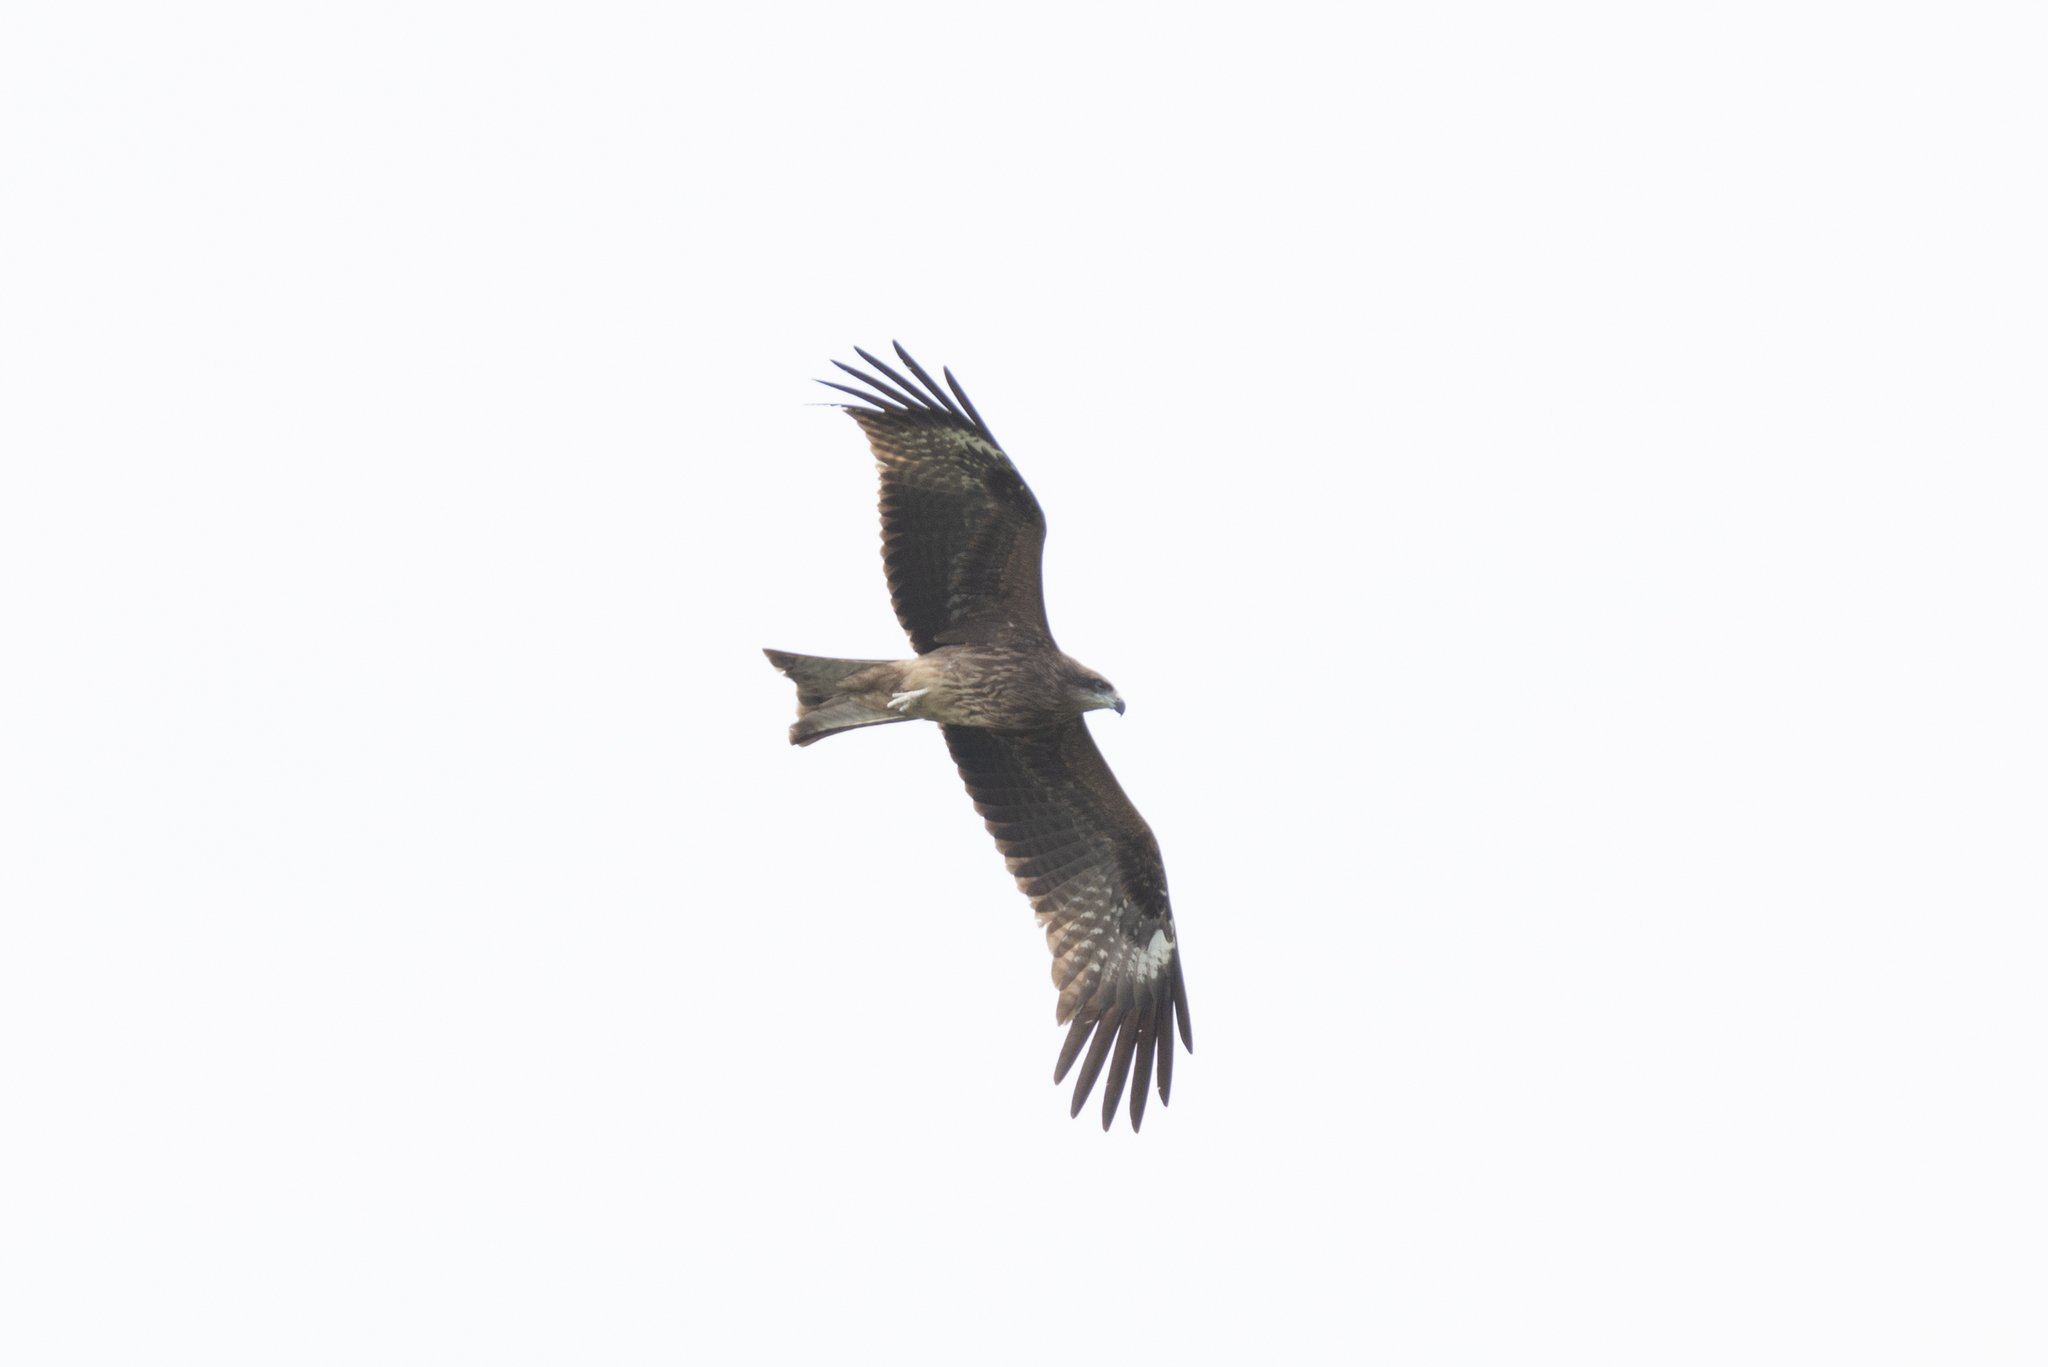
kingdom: Animalia
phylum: Chordata
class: Aves
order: Accipitriformes
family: Accipitridae
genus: Milvus
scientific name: Milvus migrans
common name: Black kite
